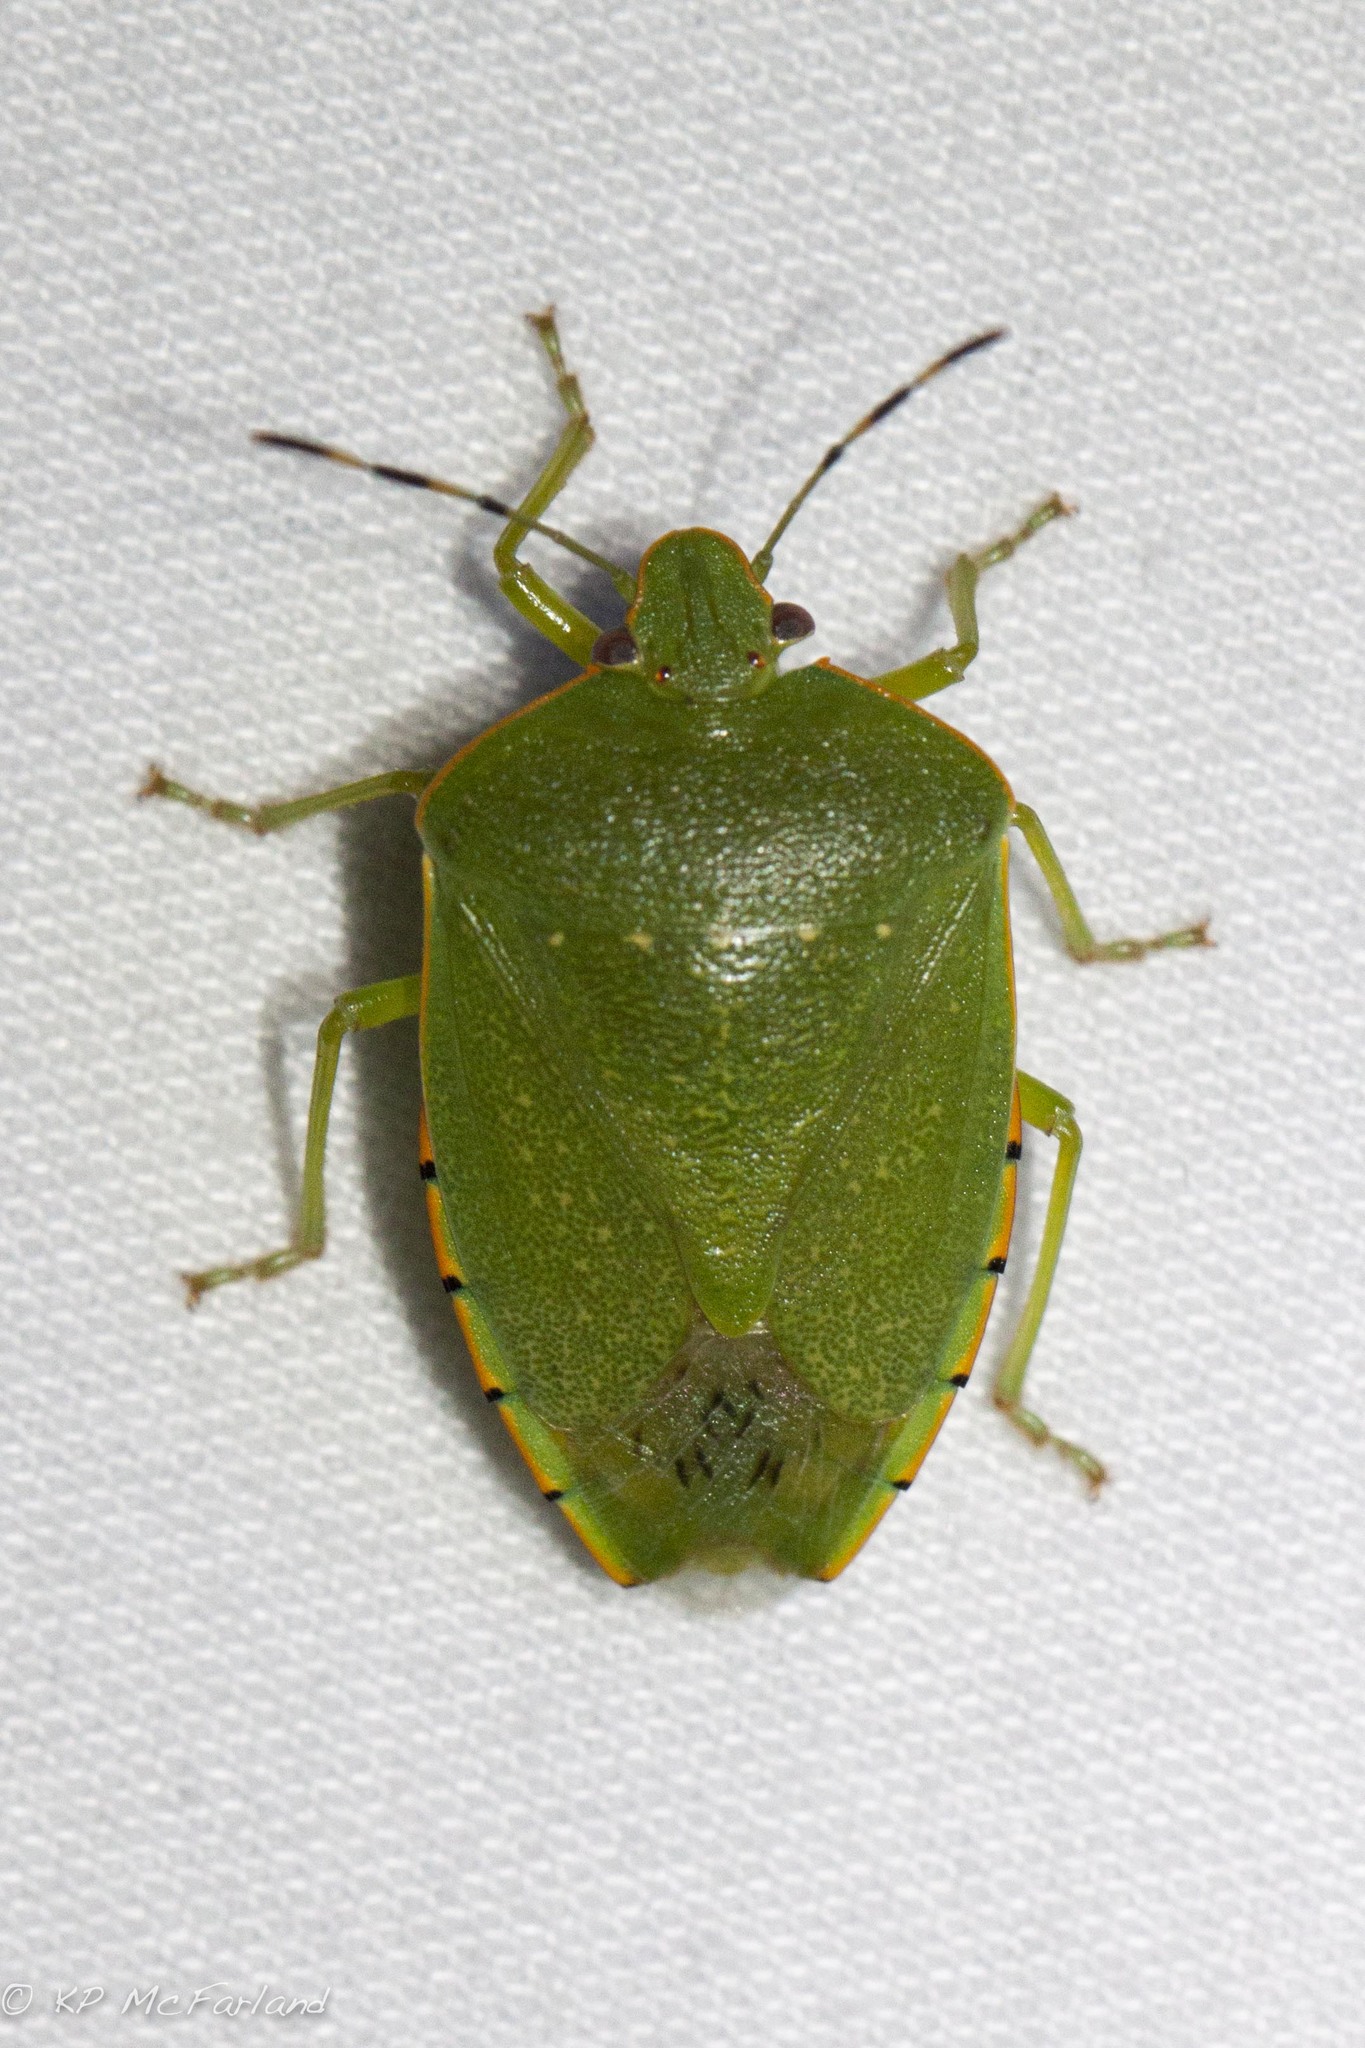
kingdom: Animalia
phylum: Arthropoda
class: Insecta
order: Hemiptera
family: Pentatomidae
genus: Chinavia
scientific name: Chinavia hilaris
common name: Green stink bug
